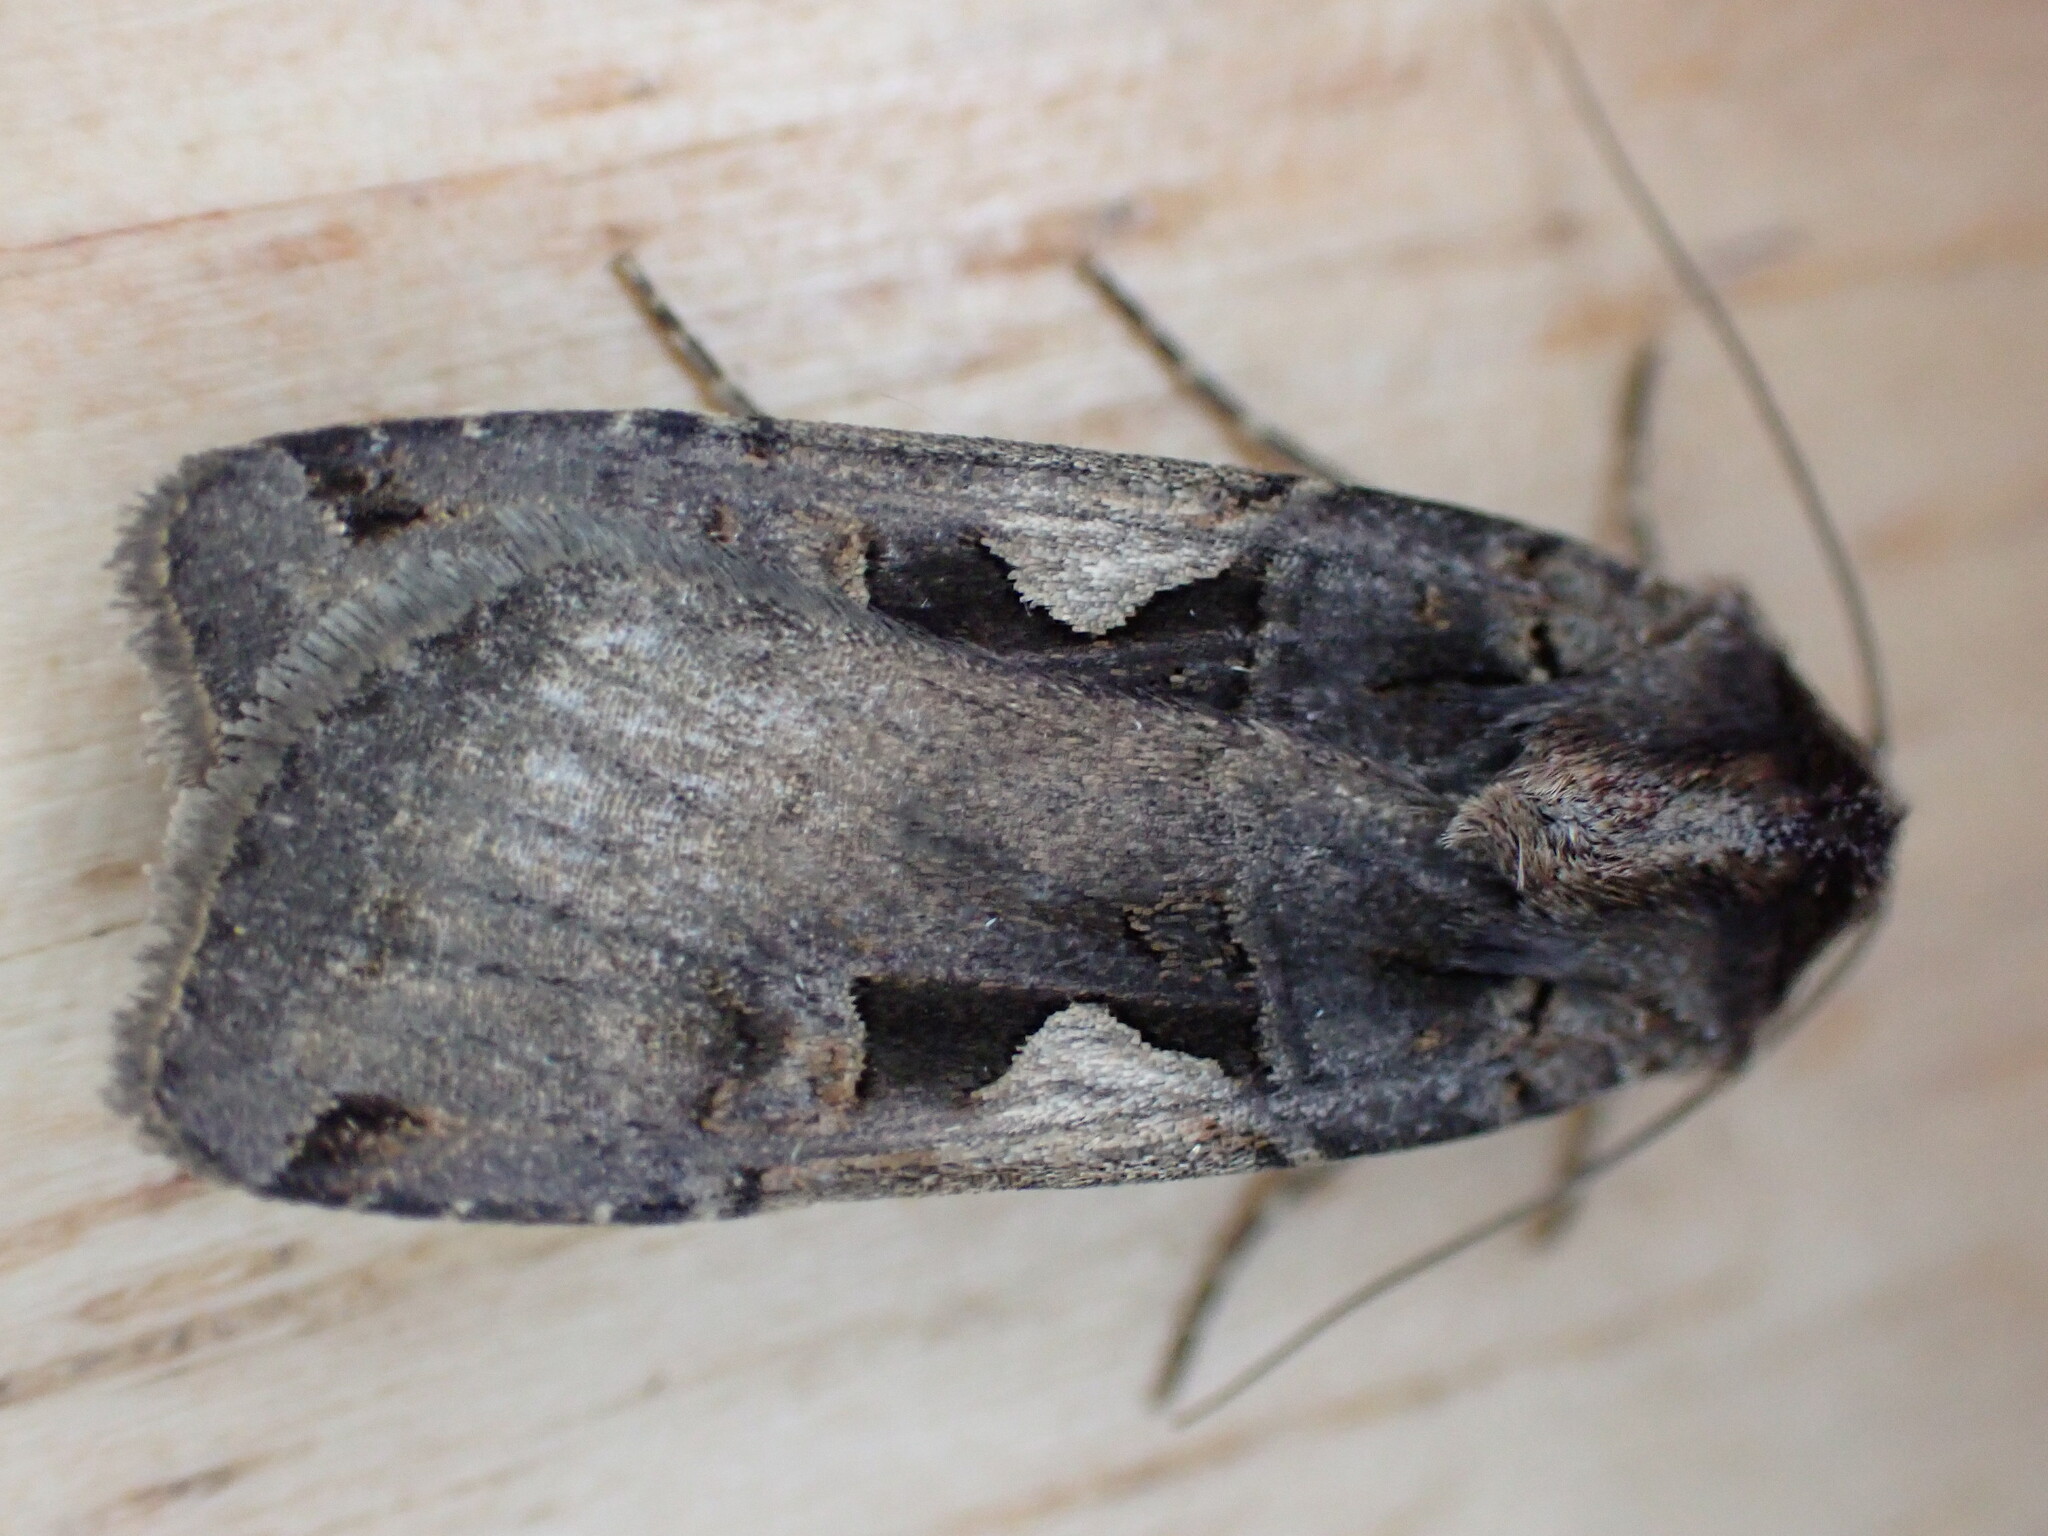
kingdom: Animalia
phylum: Arthropoda
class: Insecta
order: Lepidoptera
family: Noctuidae
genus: Xestia
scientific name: Xestia c-nigrum
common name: Setaceous hebrew character
